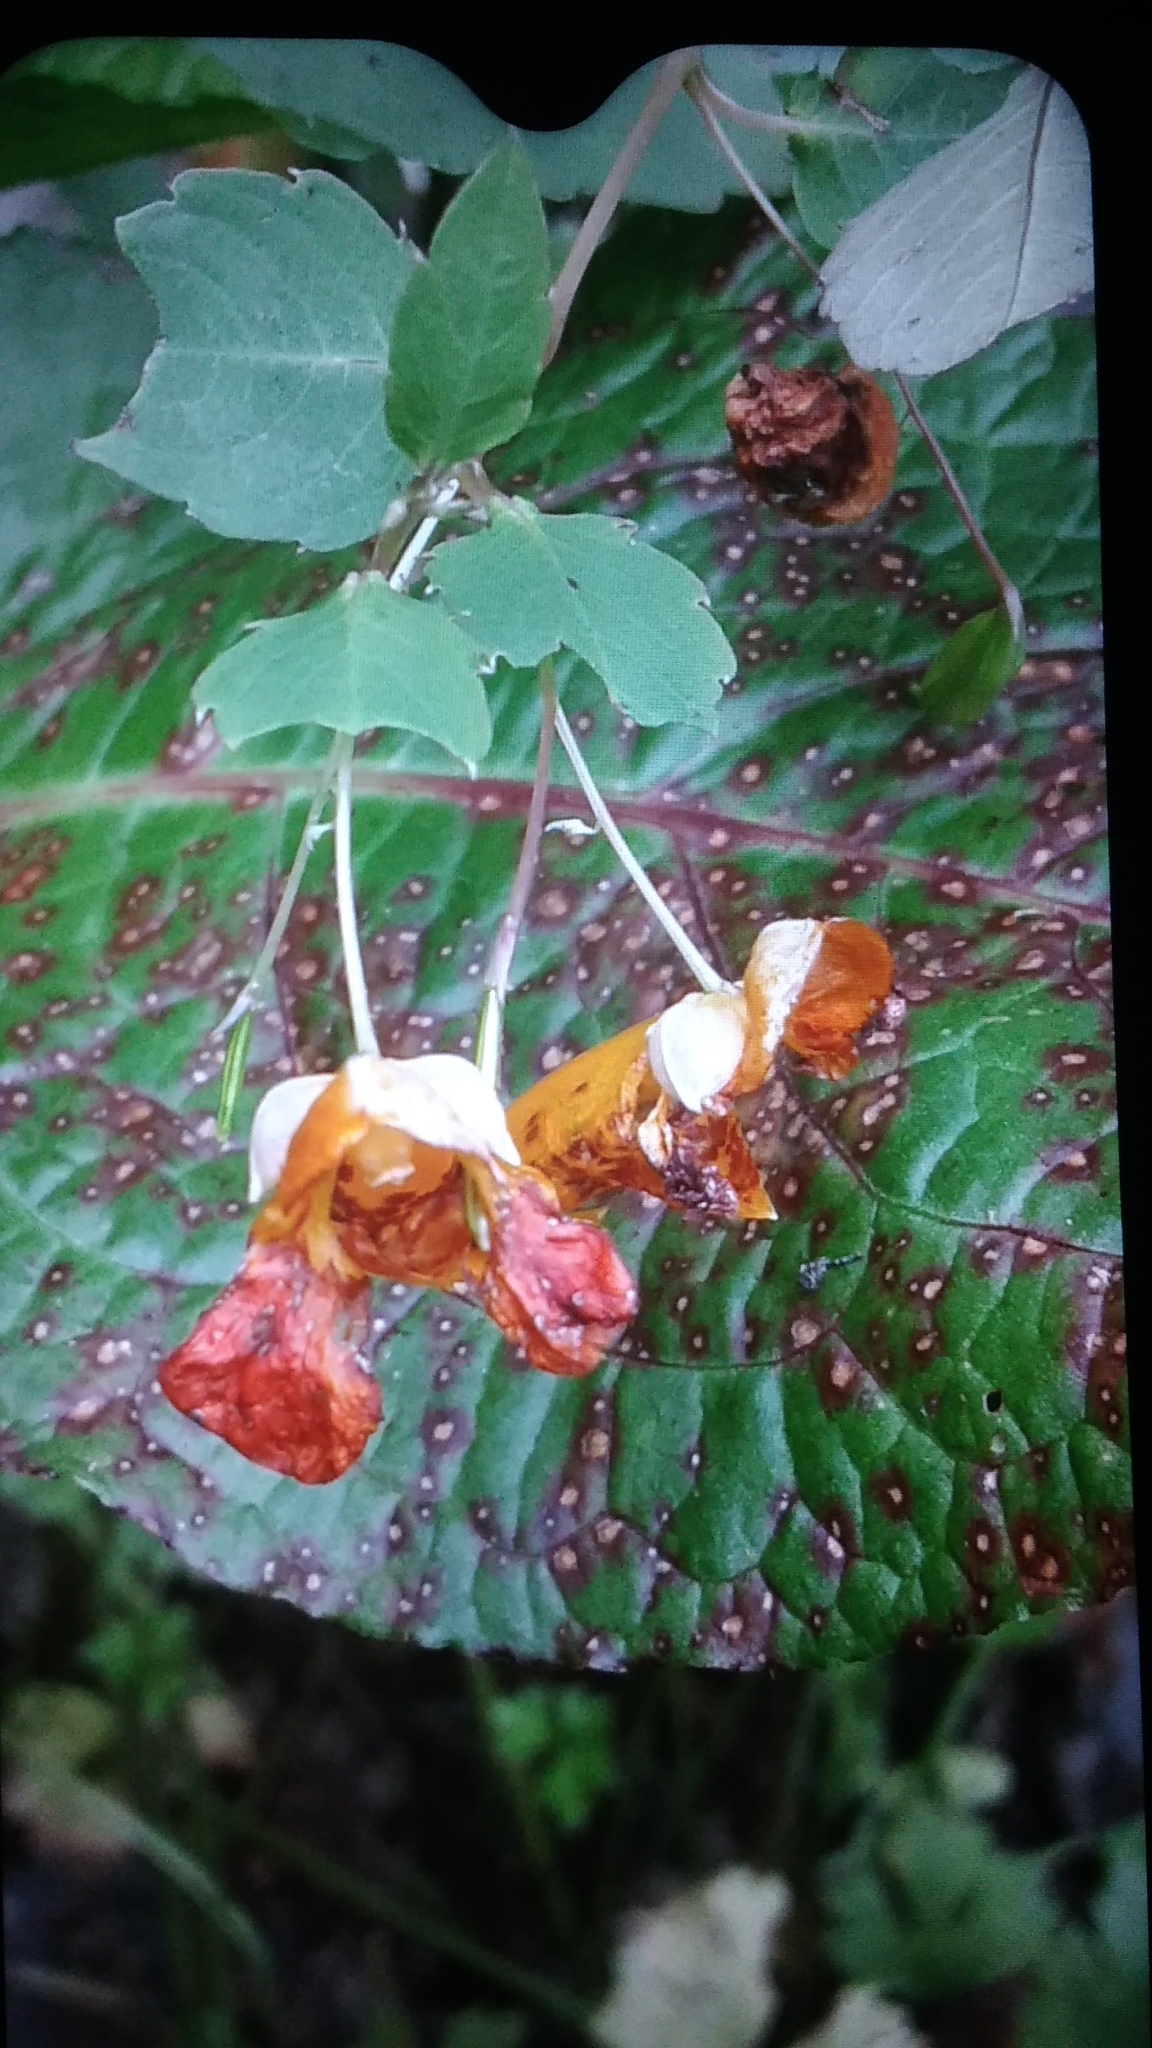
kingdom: Plantae
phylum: Tracheophyta
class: Magnoliopsida
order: Ericales
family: Balsaminaceae
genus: Impatiens
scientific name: Impatiens capensis
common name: Orange balsam
